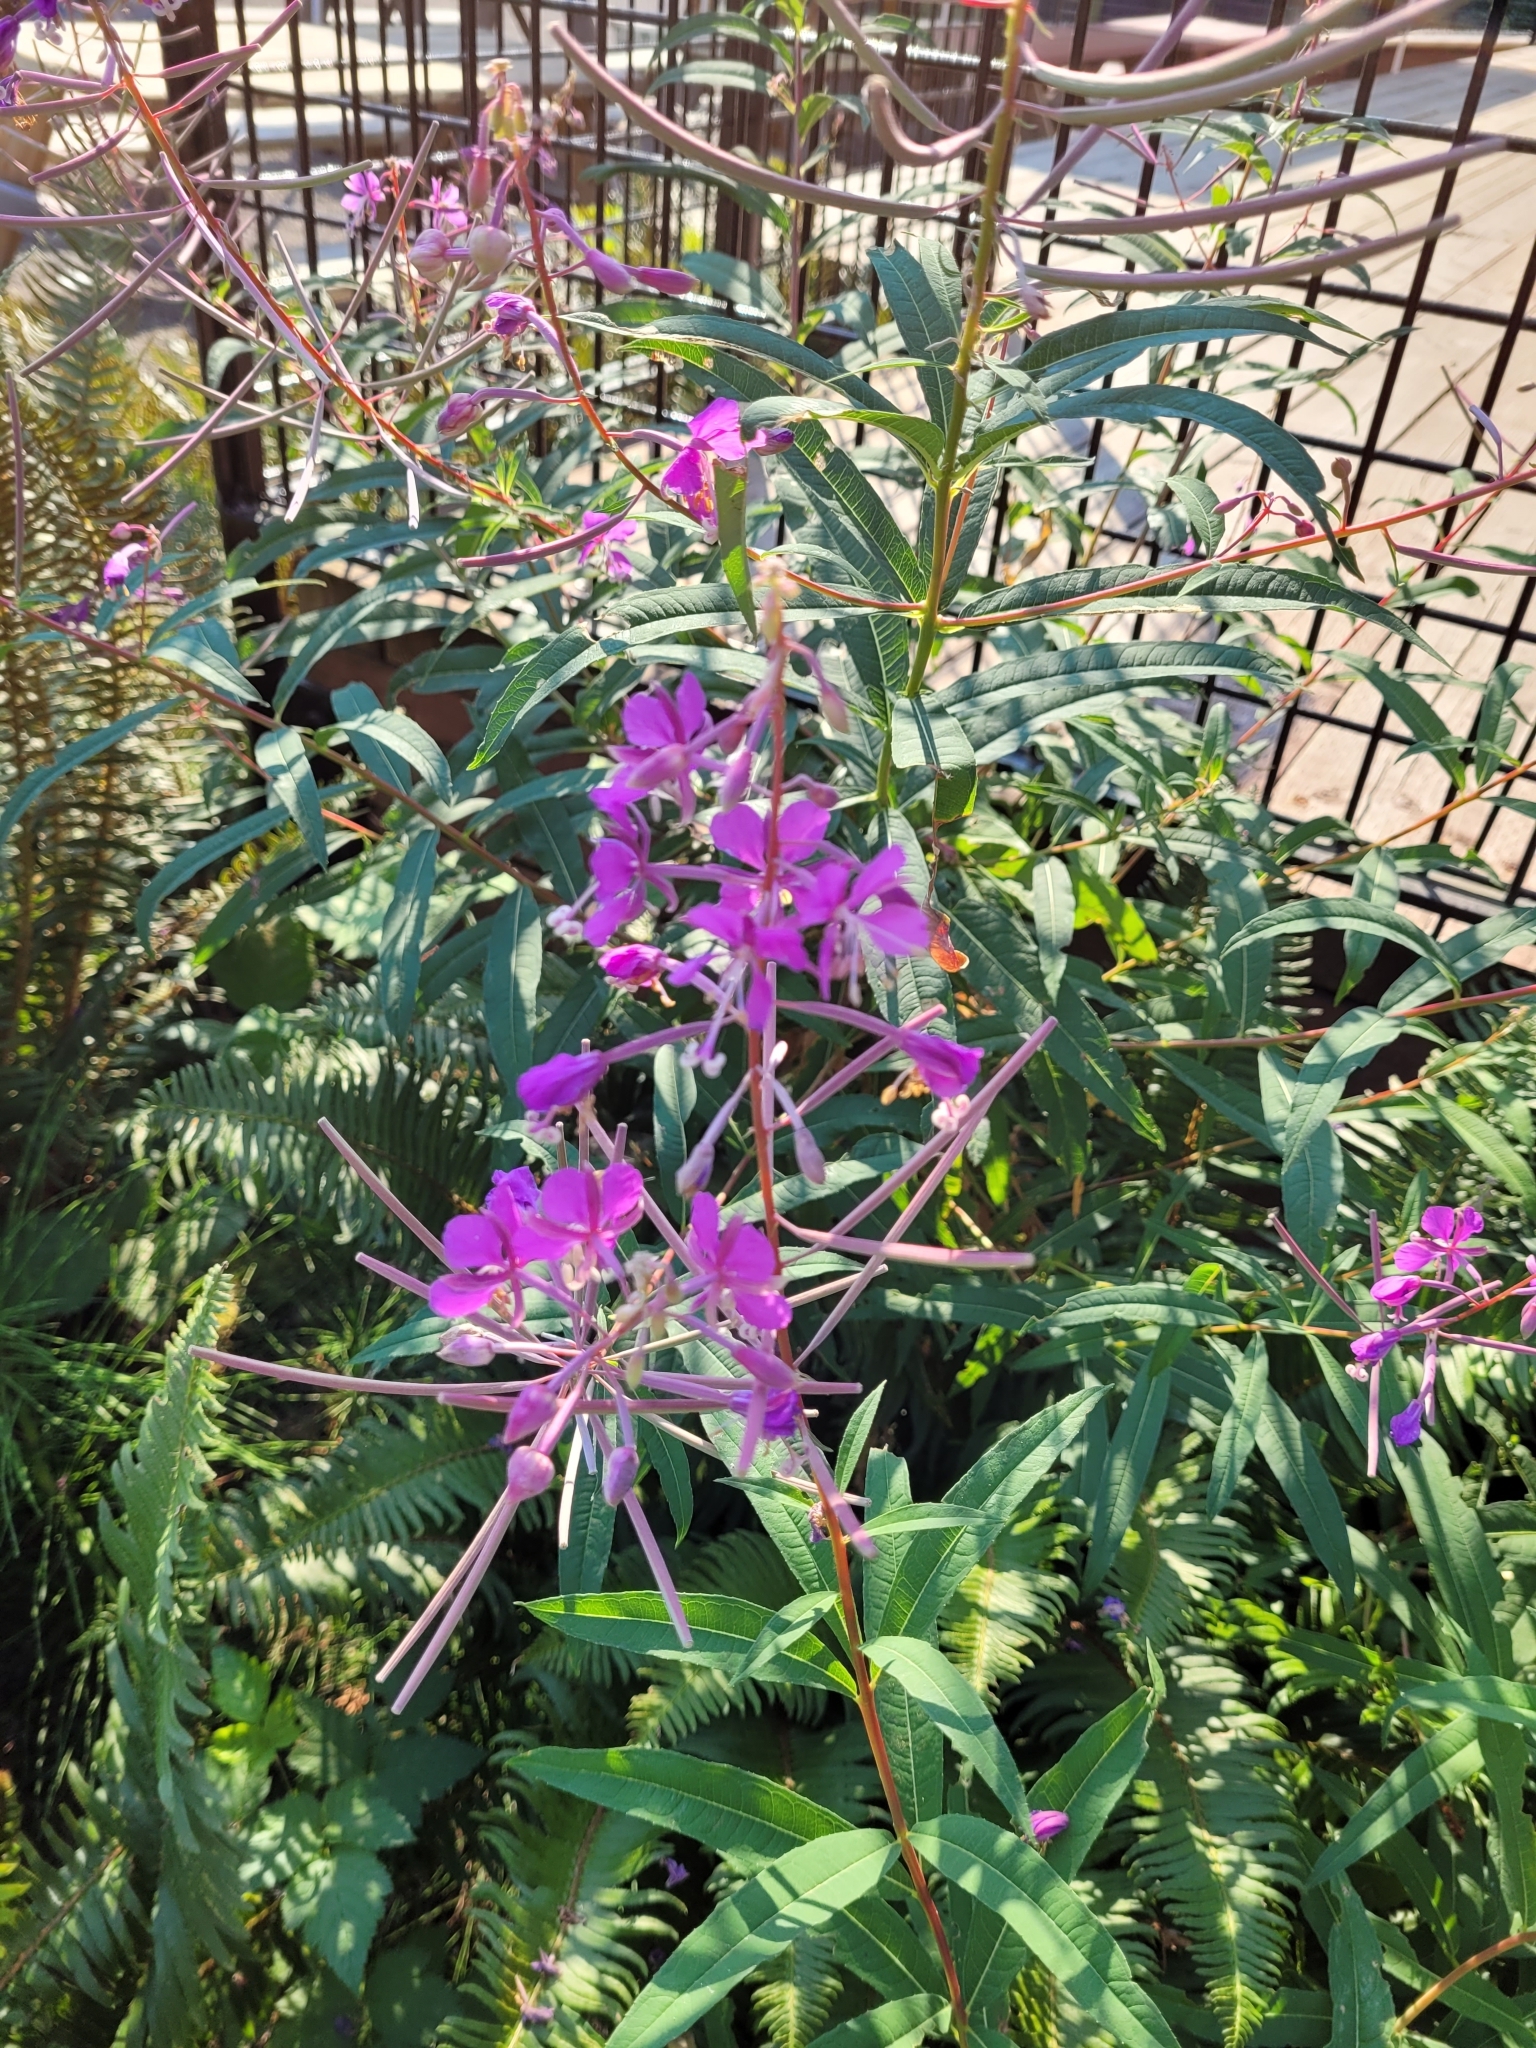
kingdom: Plantae
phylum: Tracheophyta
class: Magnoliopsida
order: Myrtales
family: Onagraceae
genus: Chamaenerion
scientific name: Chamaenerion angustifolium
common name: Fireweed
